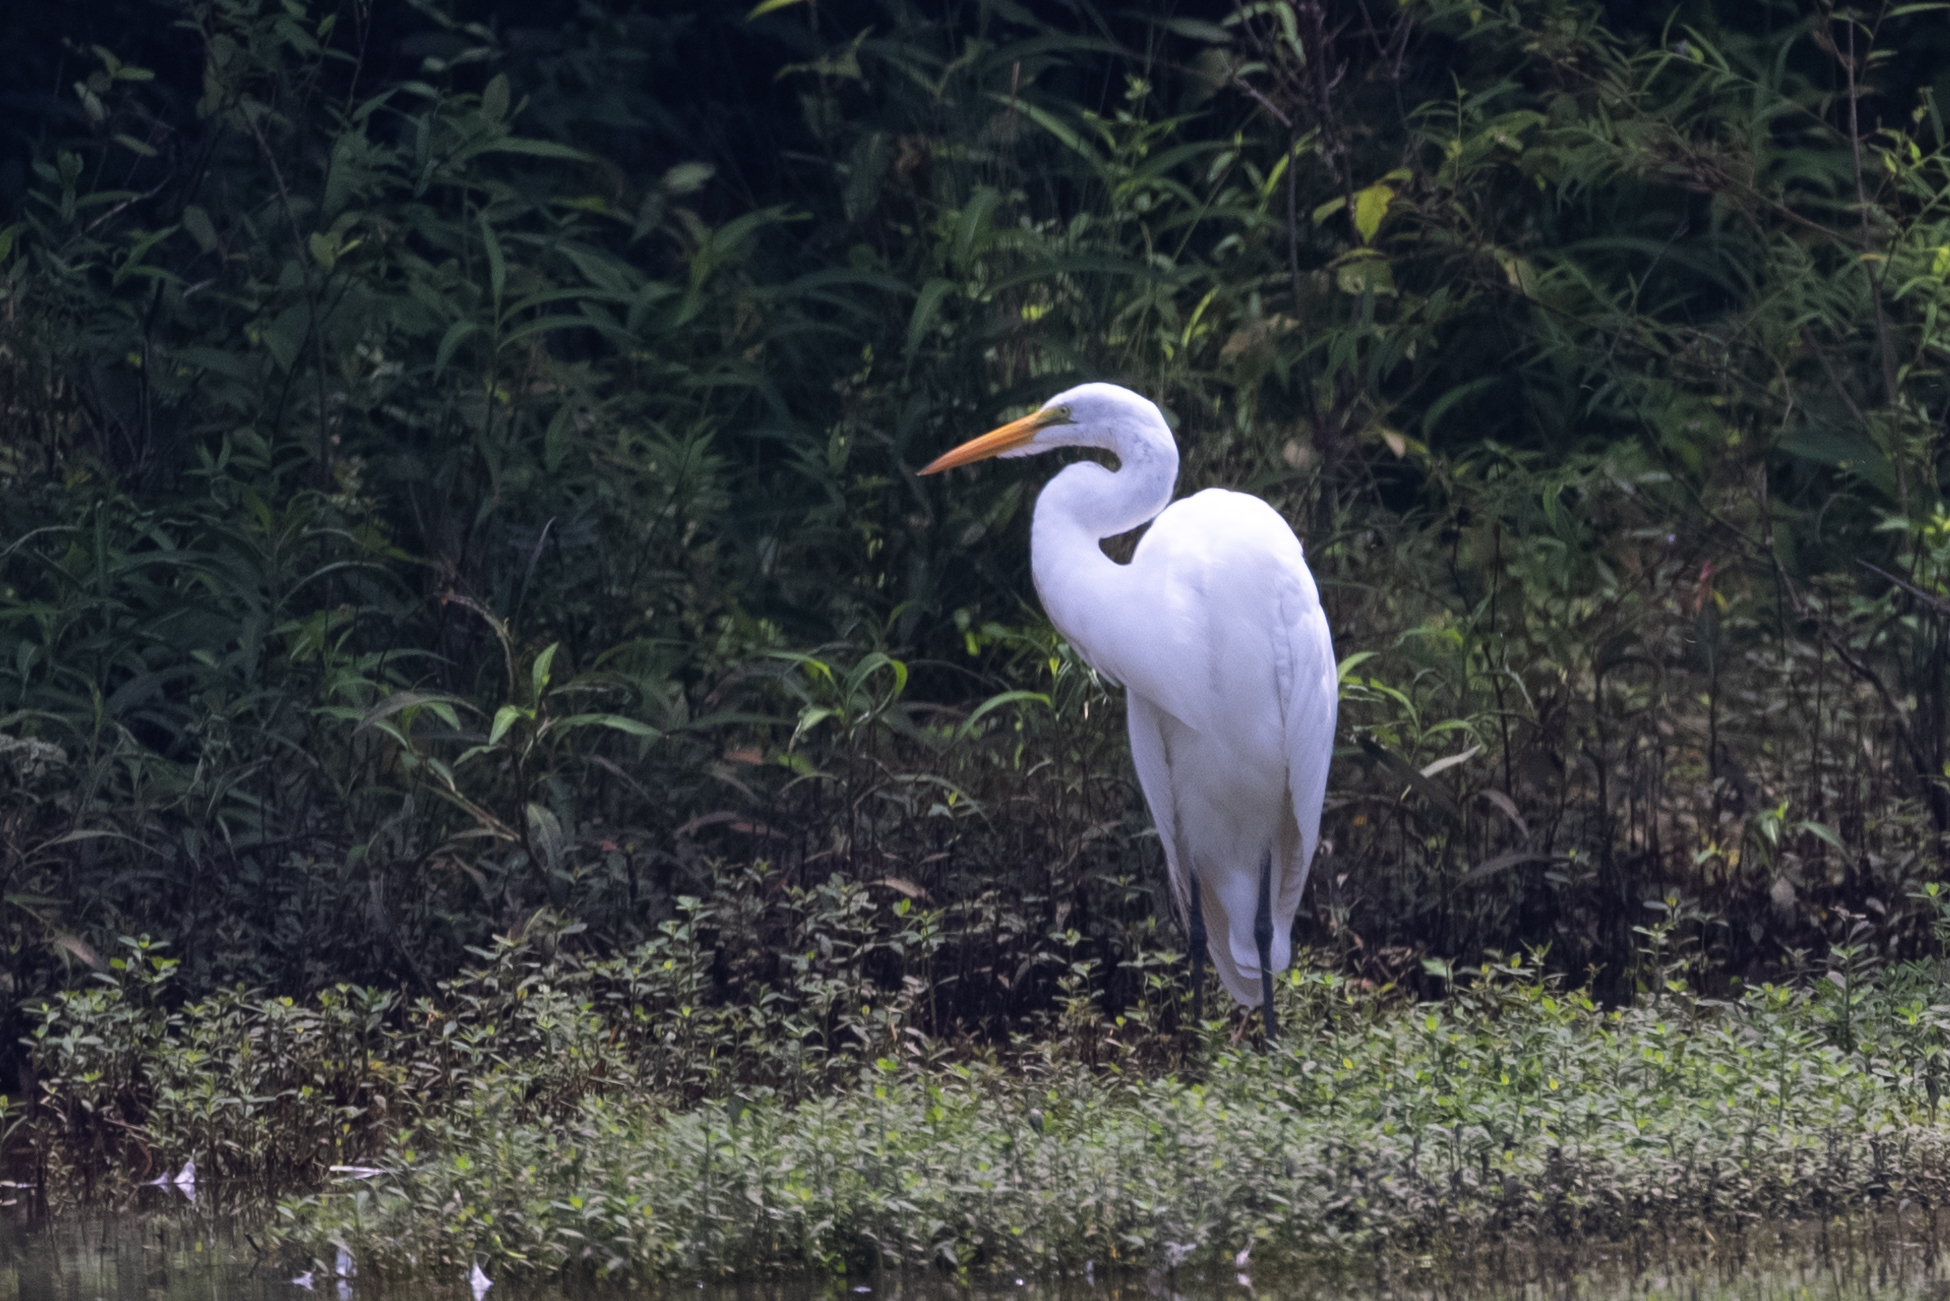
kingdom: Animalia
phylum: Chordata
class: Aves
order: Pelecaniformes
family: Ardeidae
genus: Ardea
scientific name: Ardea alba
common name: Great egret
